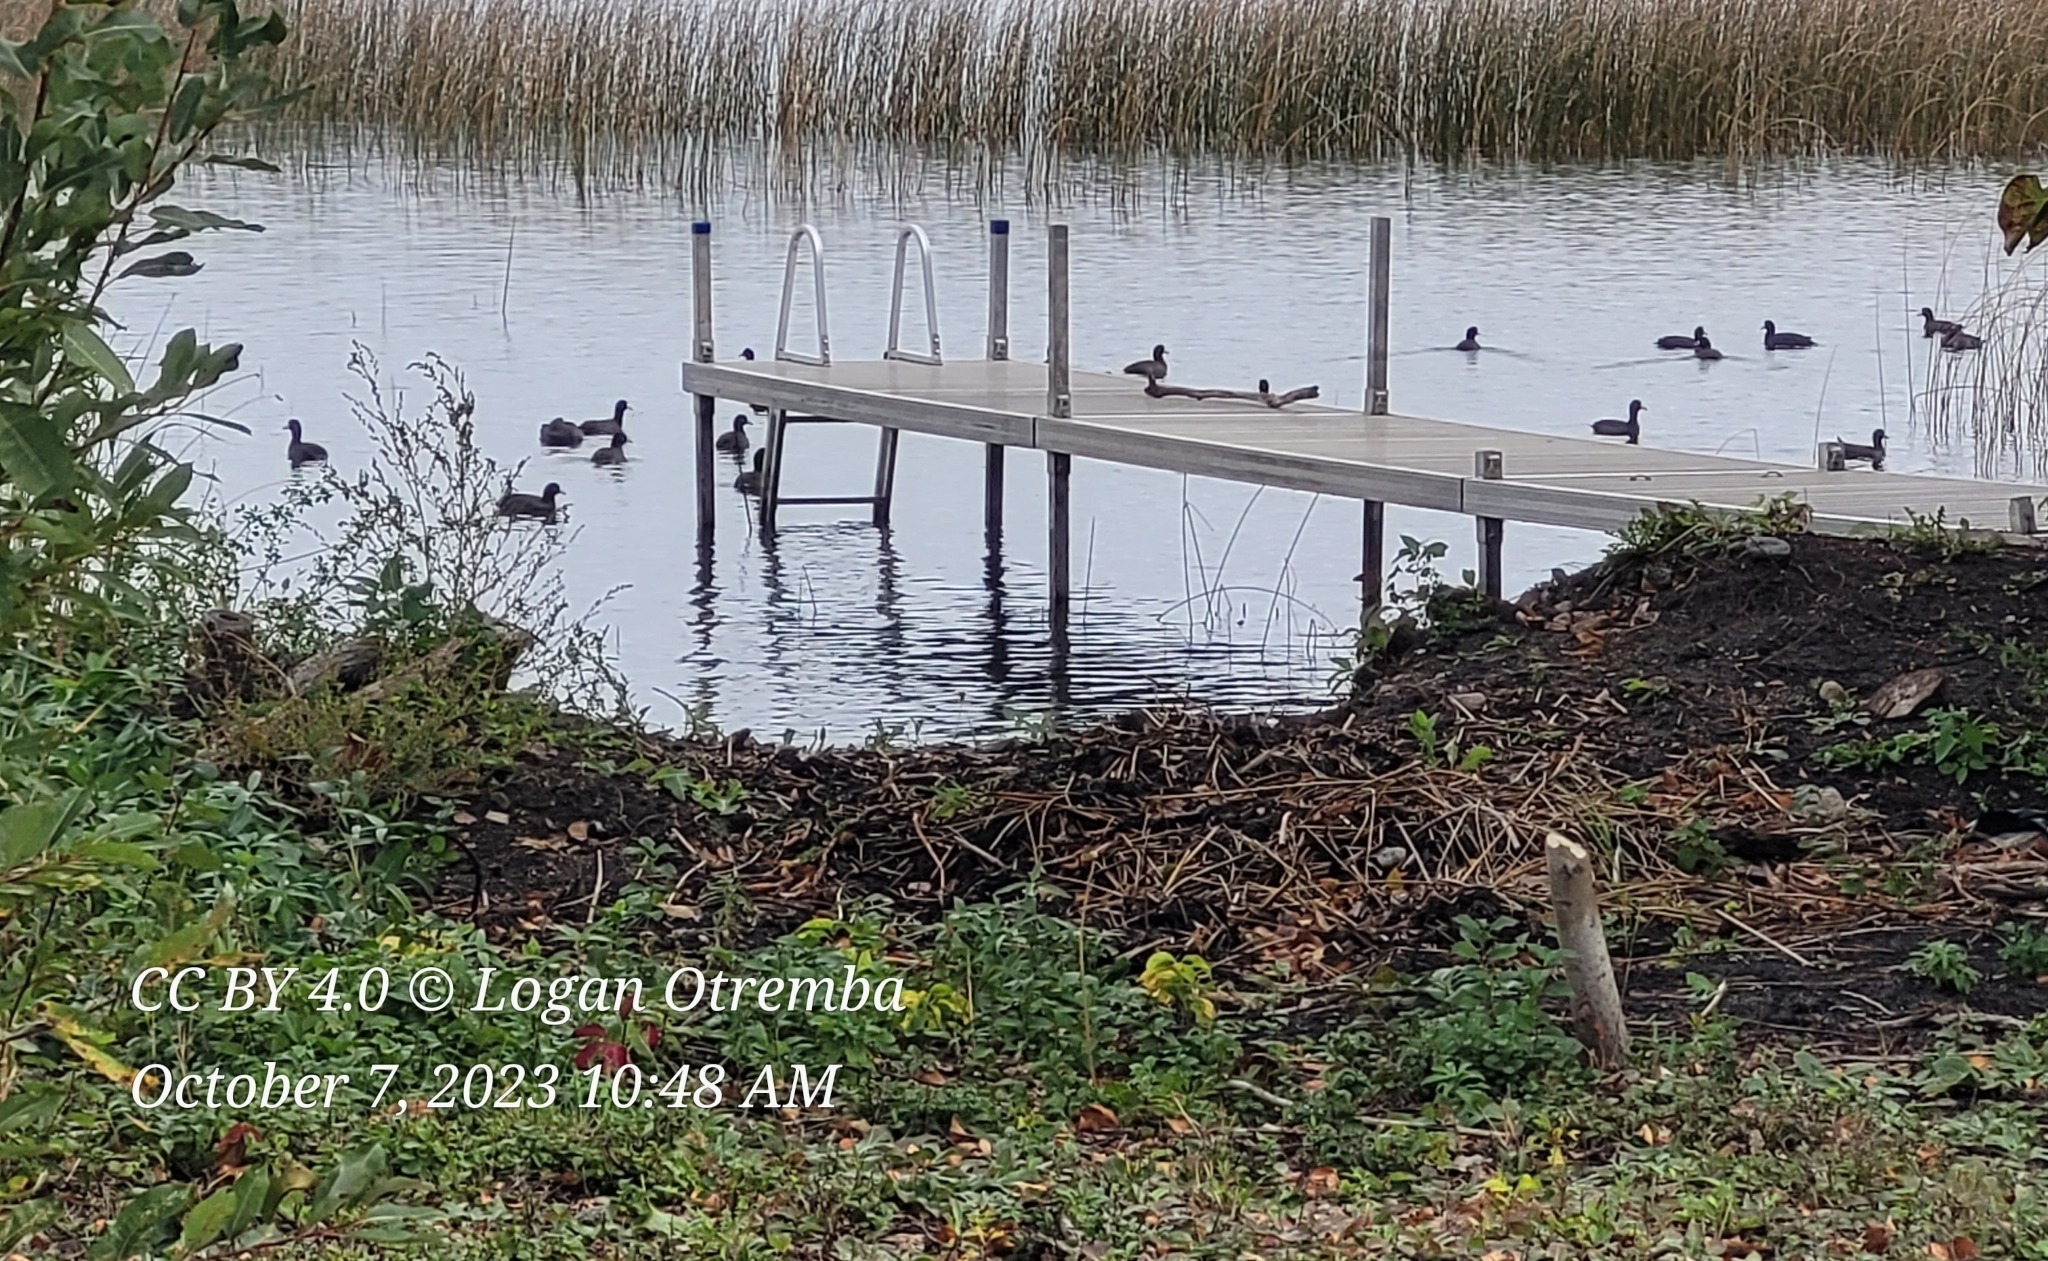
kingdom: Animalia
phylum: Chordata
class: Aves
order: Gruiformes
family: Rallidae
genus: Fulica
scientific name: Fulica americana
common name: American coot
